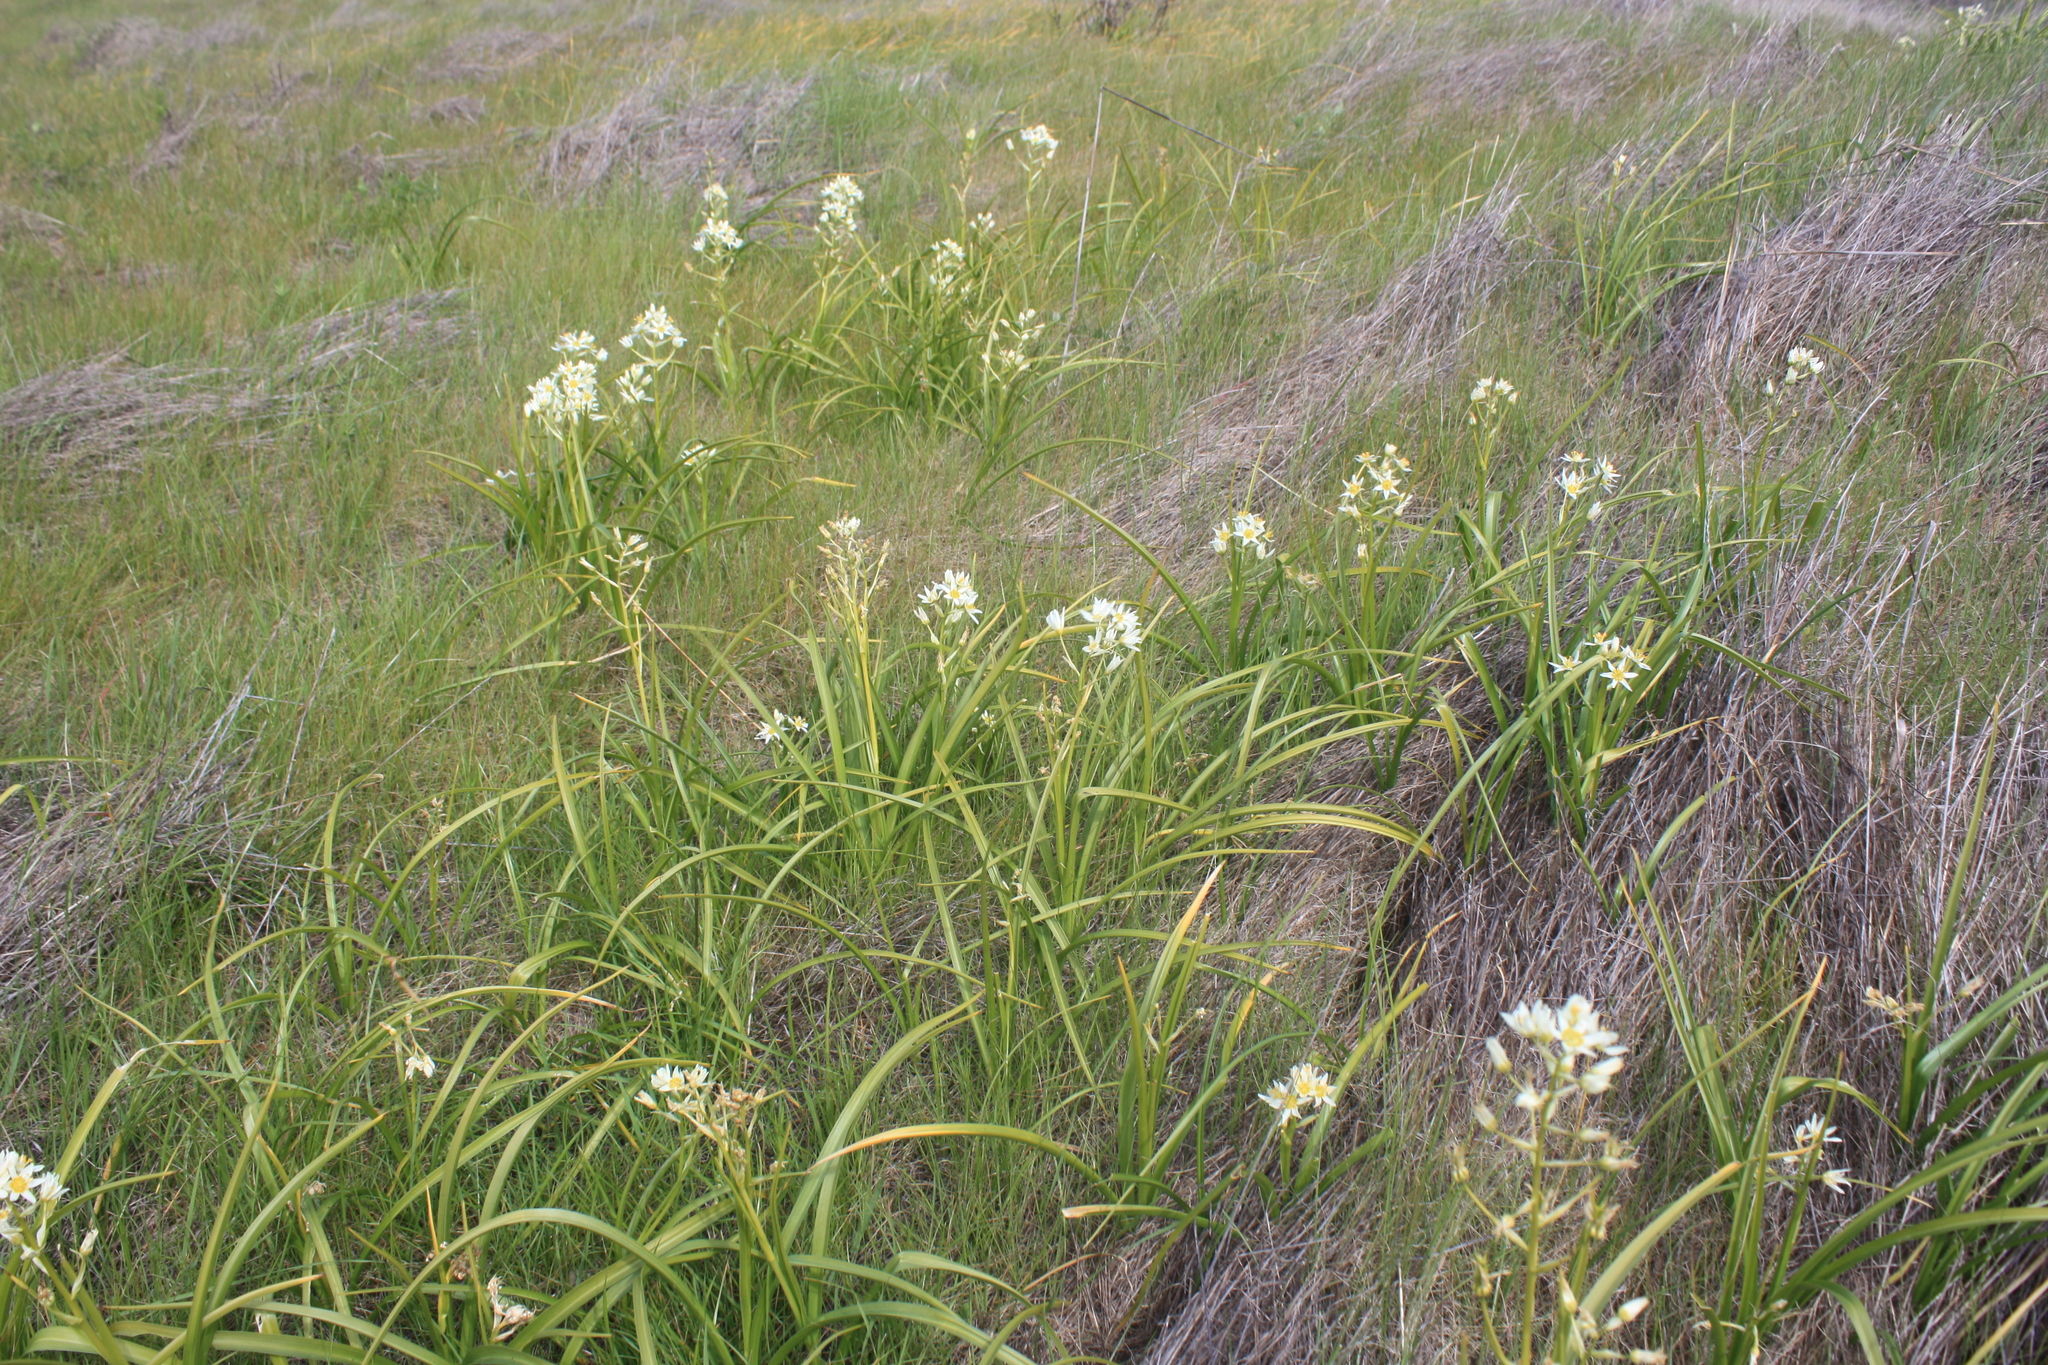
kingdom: Plantae
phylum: Tracheophyta
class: Liliopsida
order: Liliales
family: Melanthiaceae
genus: Toxicoscordion
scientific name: Toxicoscordion fremontii
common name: Fremont's death camas
